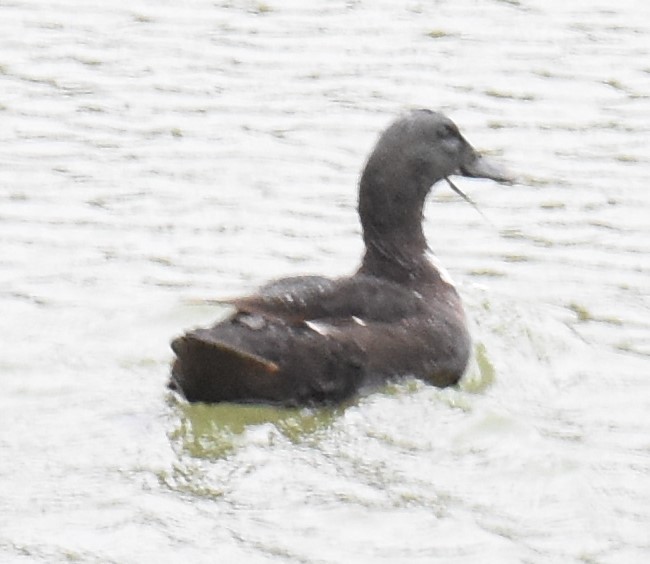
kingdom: Animalia
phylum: Chordata
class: Aves
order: Anseriformes
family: Anatidae
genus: Anas
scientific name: Anas platyrhynchos
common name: Mallard
